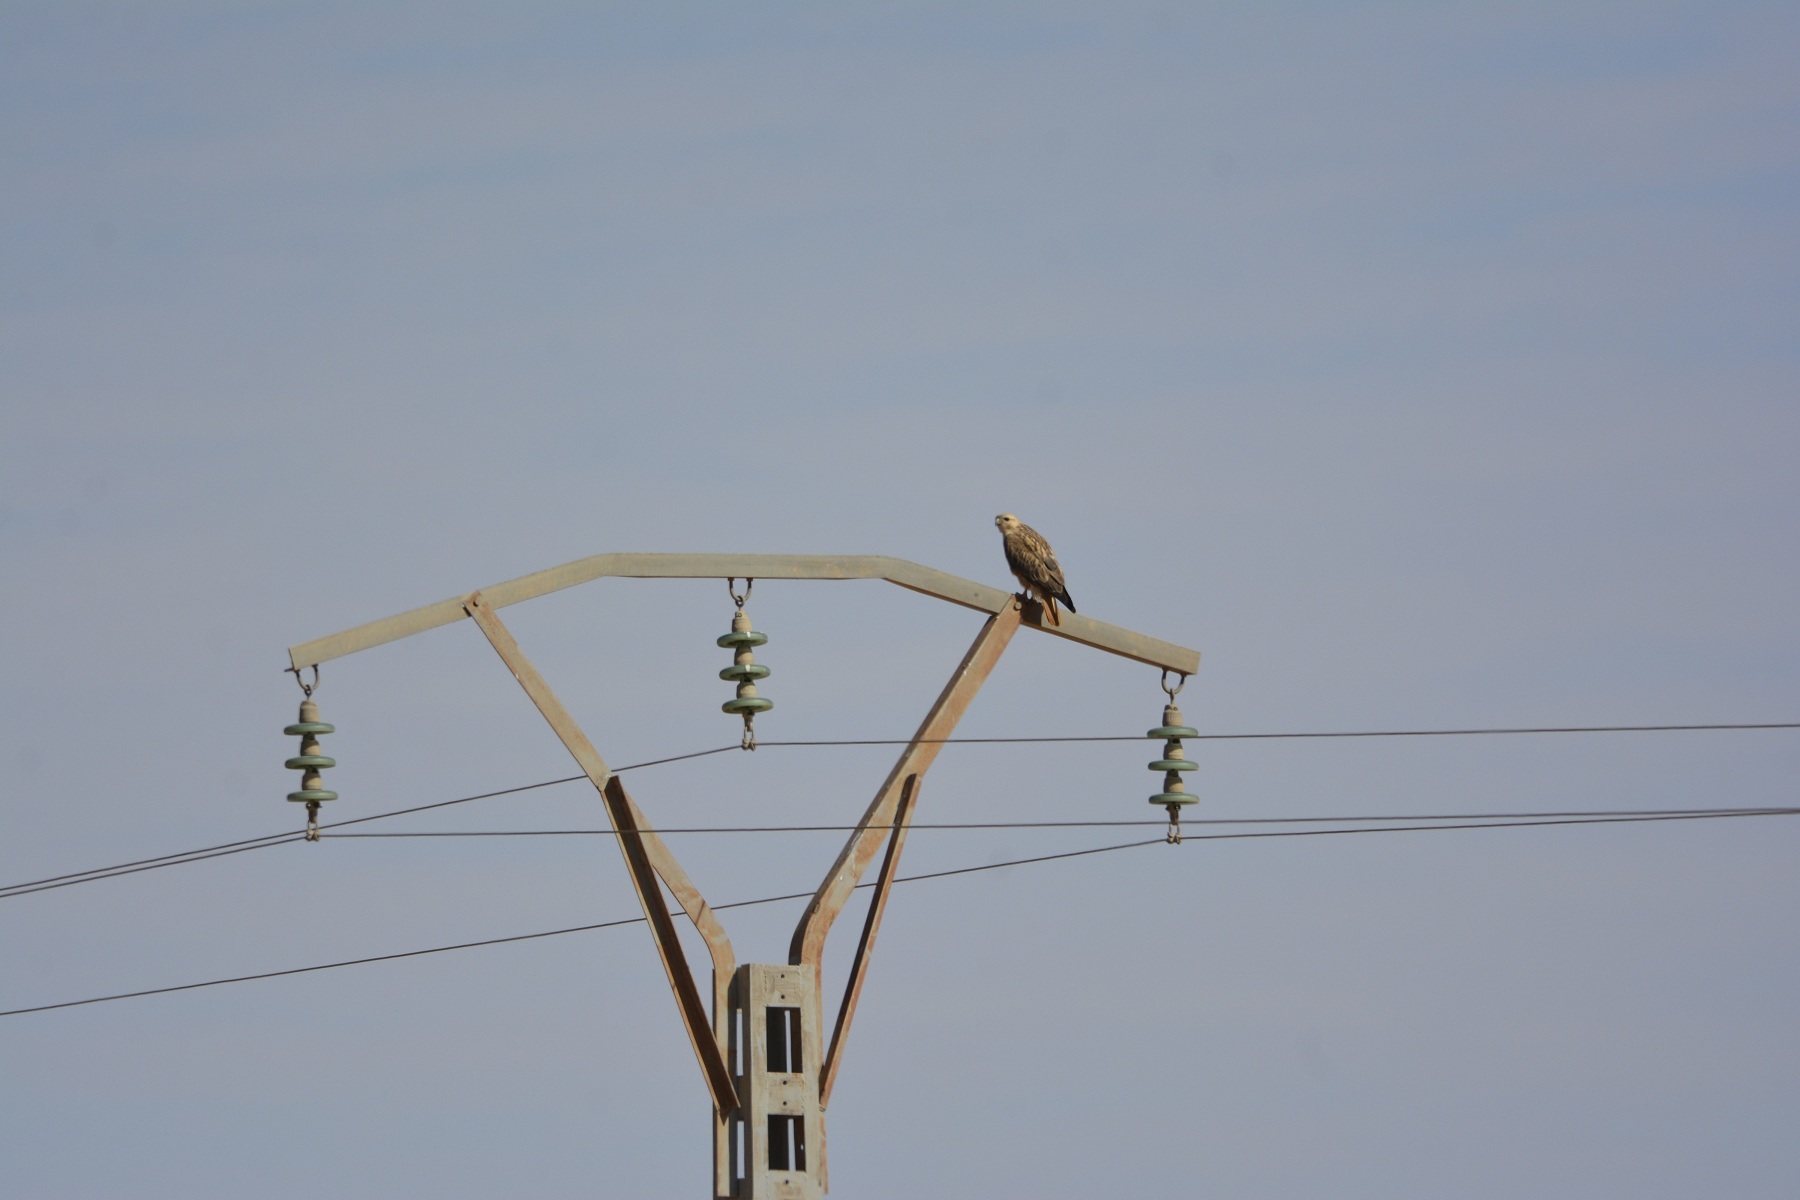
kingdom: Animalia
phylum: Chordata
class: Aves
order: Accipitriformes
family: Accipitridae
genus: Buteo
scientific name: Buteo rufinus
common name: Long-legged buzzard
